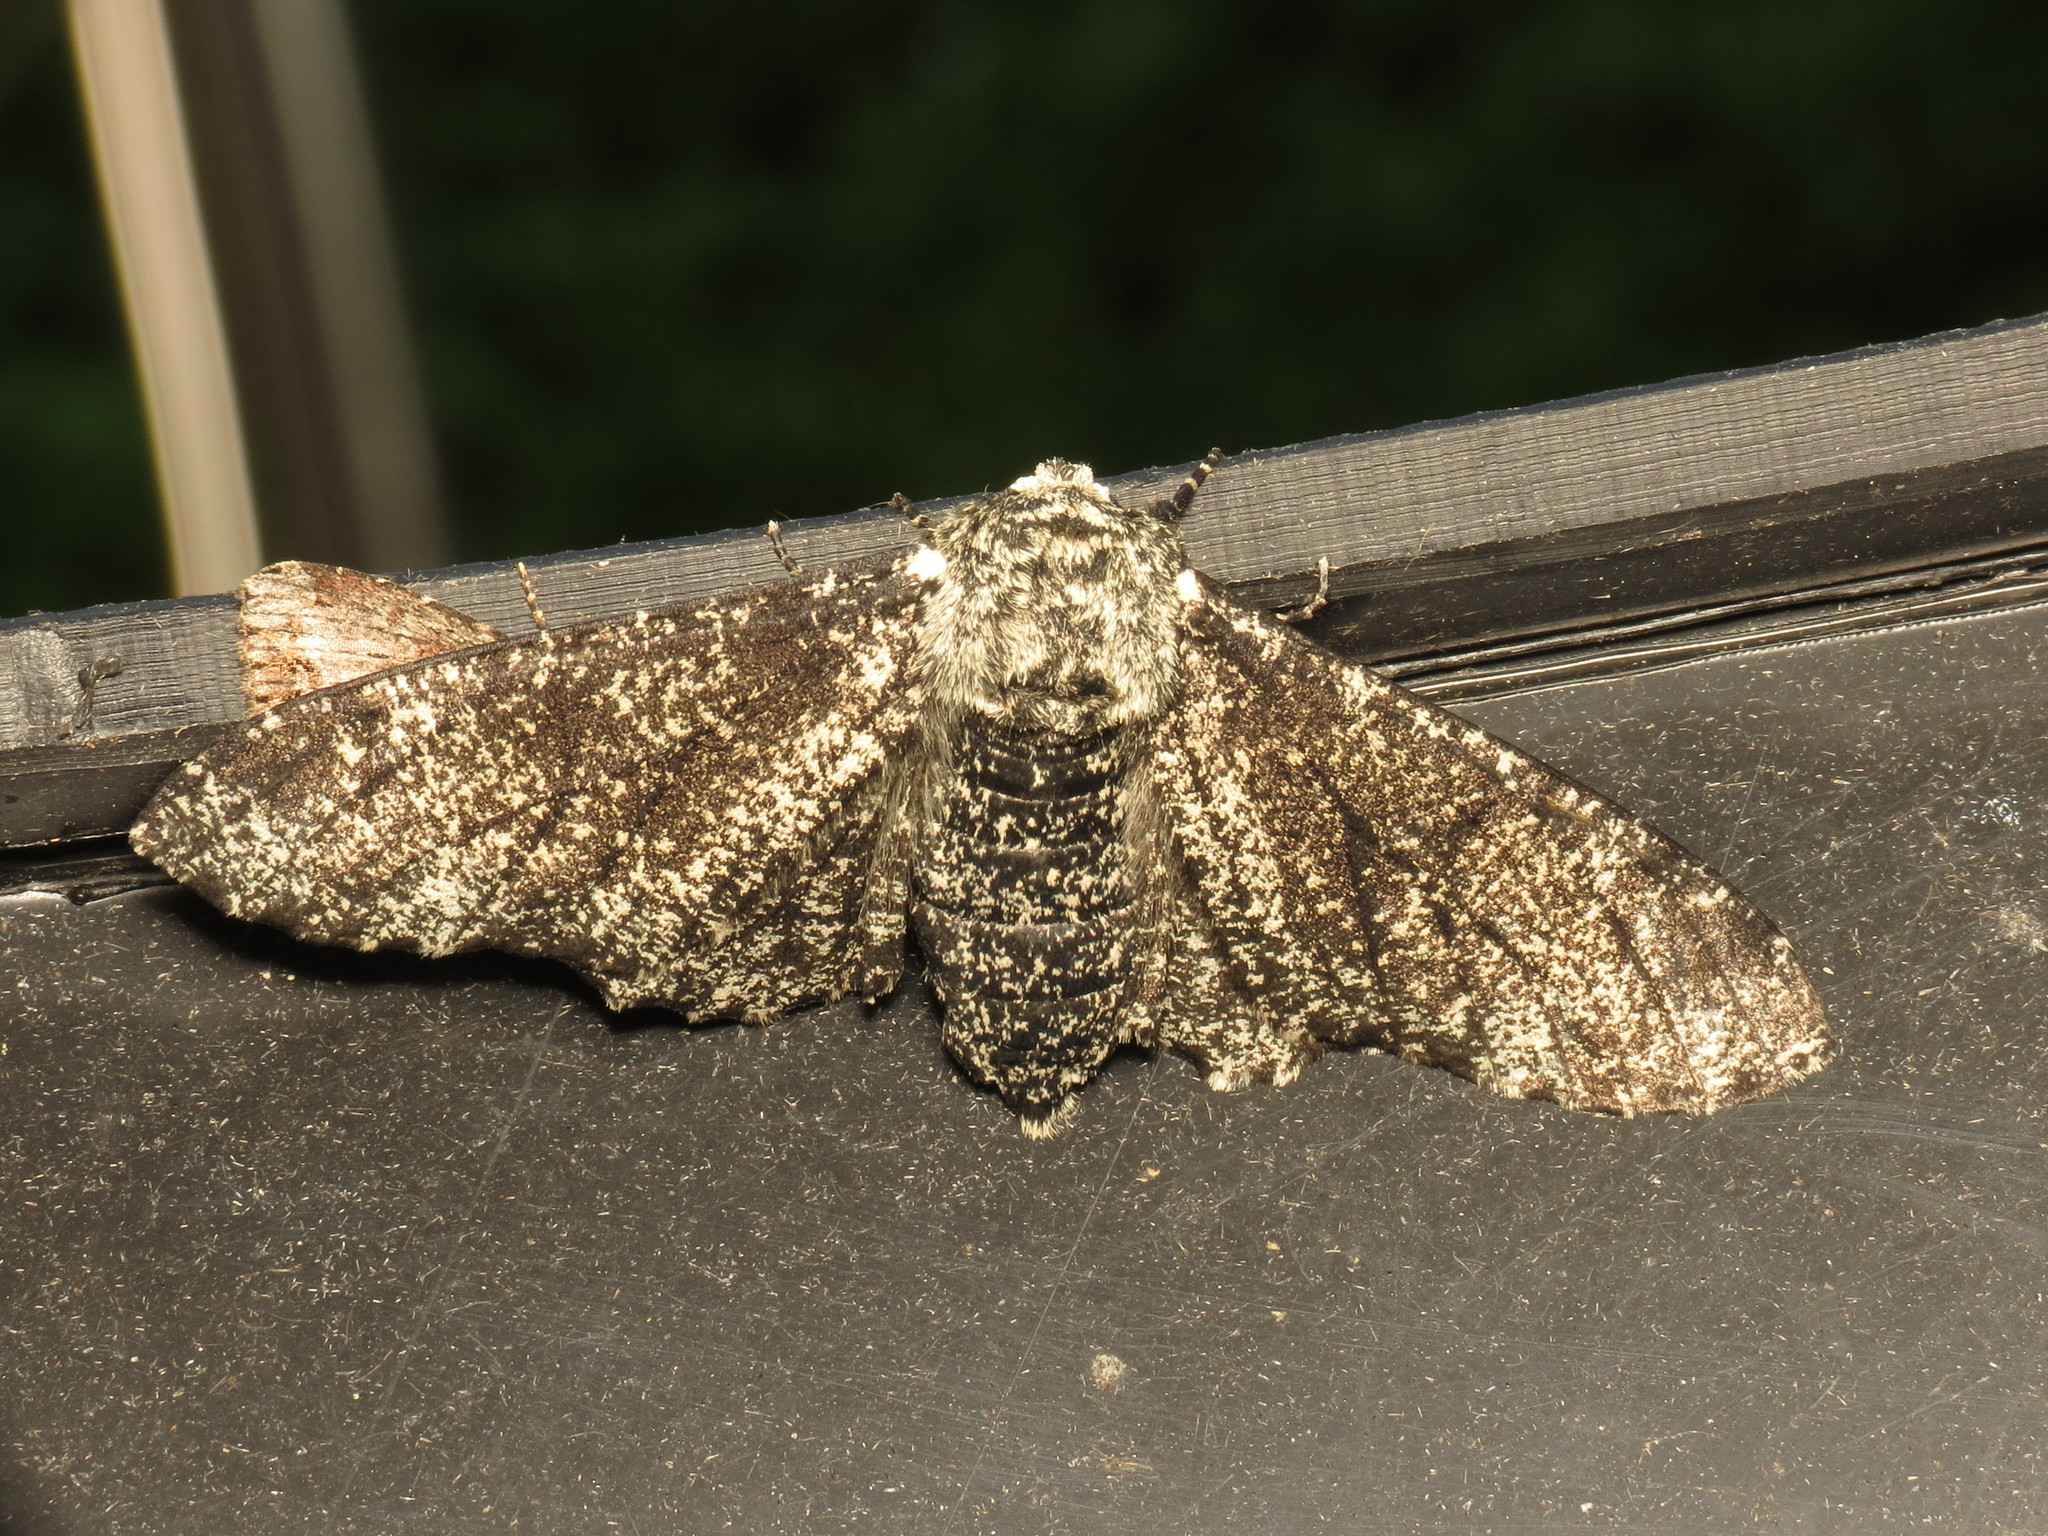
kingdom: Animalia
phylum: Arthropoda
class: Insecta
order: Lepidoptera
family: Geometridae
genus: Biston
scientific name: Biston betularia
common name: Peppered moth
